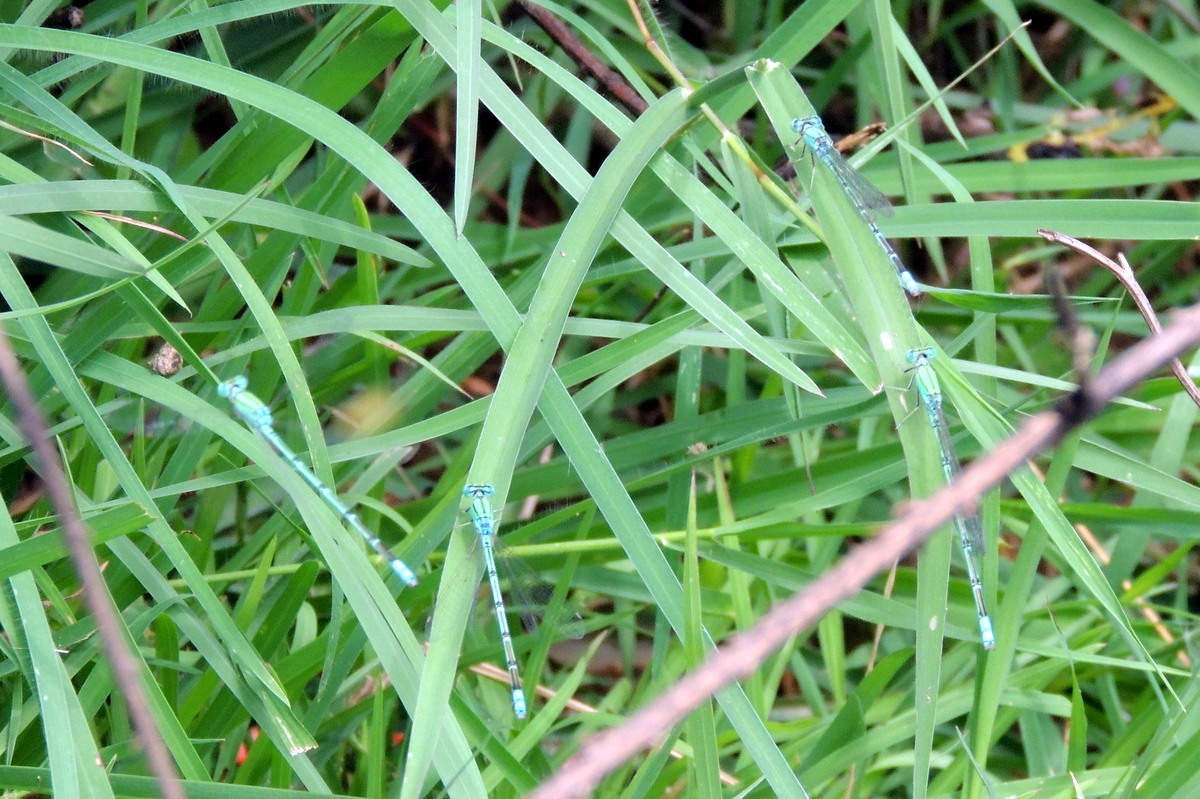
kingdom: Animalia
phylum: Arthropoda
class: Insecta
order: Odonata
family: Coenagrionidae
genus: Pseudagrion
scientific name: Pseudagrion decorum
